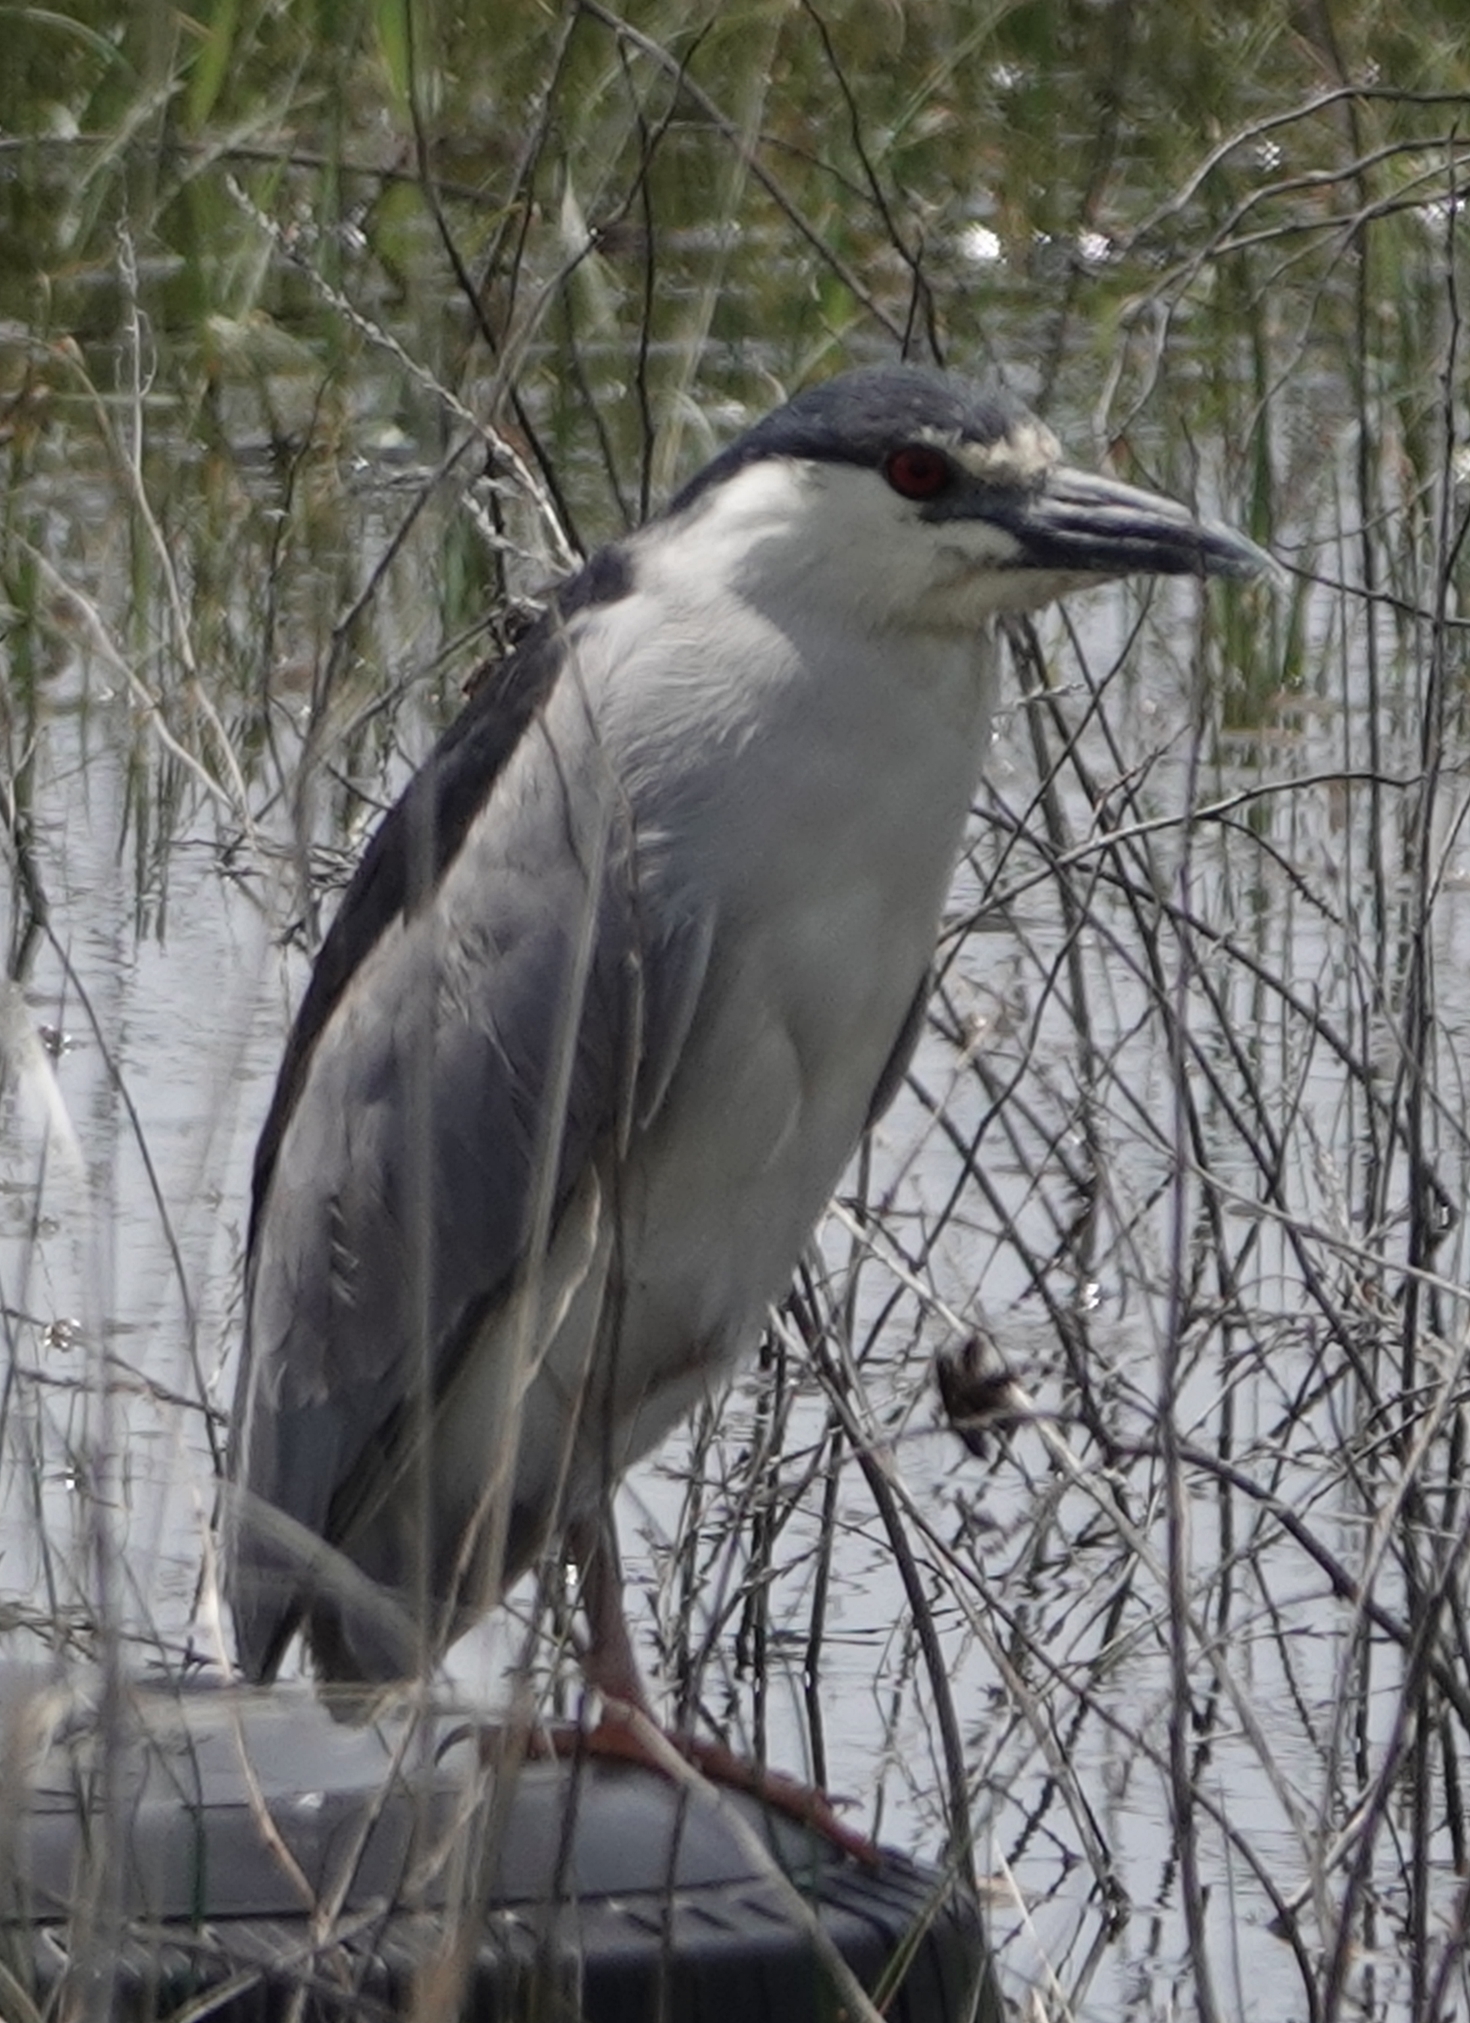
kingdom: Animalia
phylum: Chordata
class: Aves
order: Pelecaniformes
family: Ardeidae
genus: Nycticorax
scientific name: Nycticorax nycticorax
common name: Black-crowned night heron
